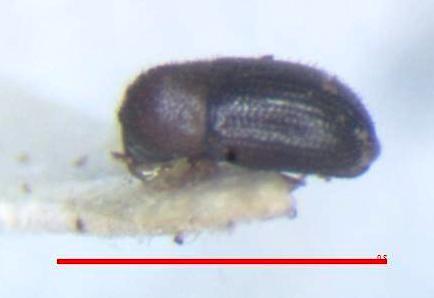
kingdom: Animalia
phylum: Arthropoda
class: Insecta
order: Coleoptera
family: Curculionidae
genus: Hypothenemus
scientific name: Hypothenemus hampei
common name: Coffee berry borer
